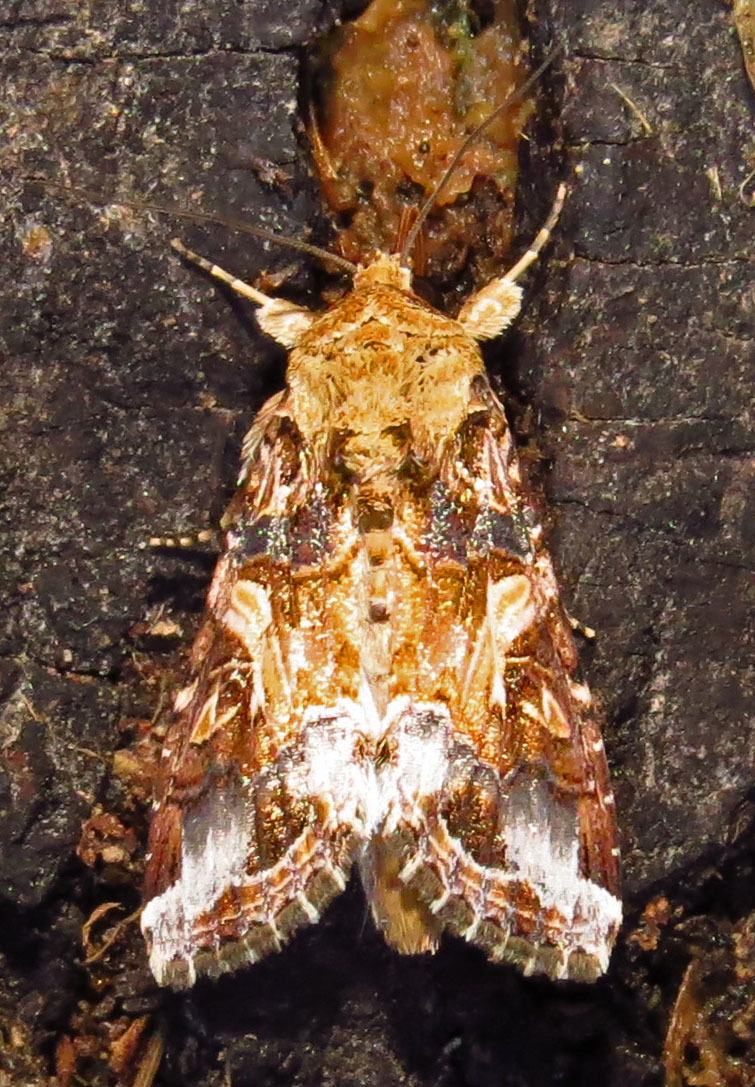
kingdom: Animalia
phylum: Arthropoda
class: Insecta
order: Lepidoptera
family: Noctuidae
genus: Spodoptera
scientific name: Spodoptera ornithogalli
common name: Yellow-striped armyworm
